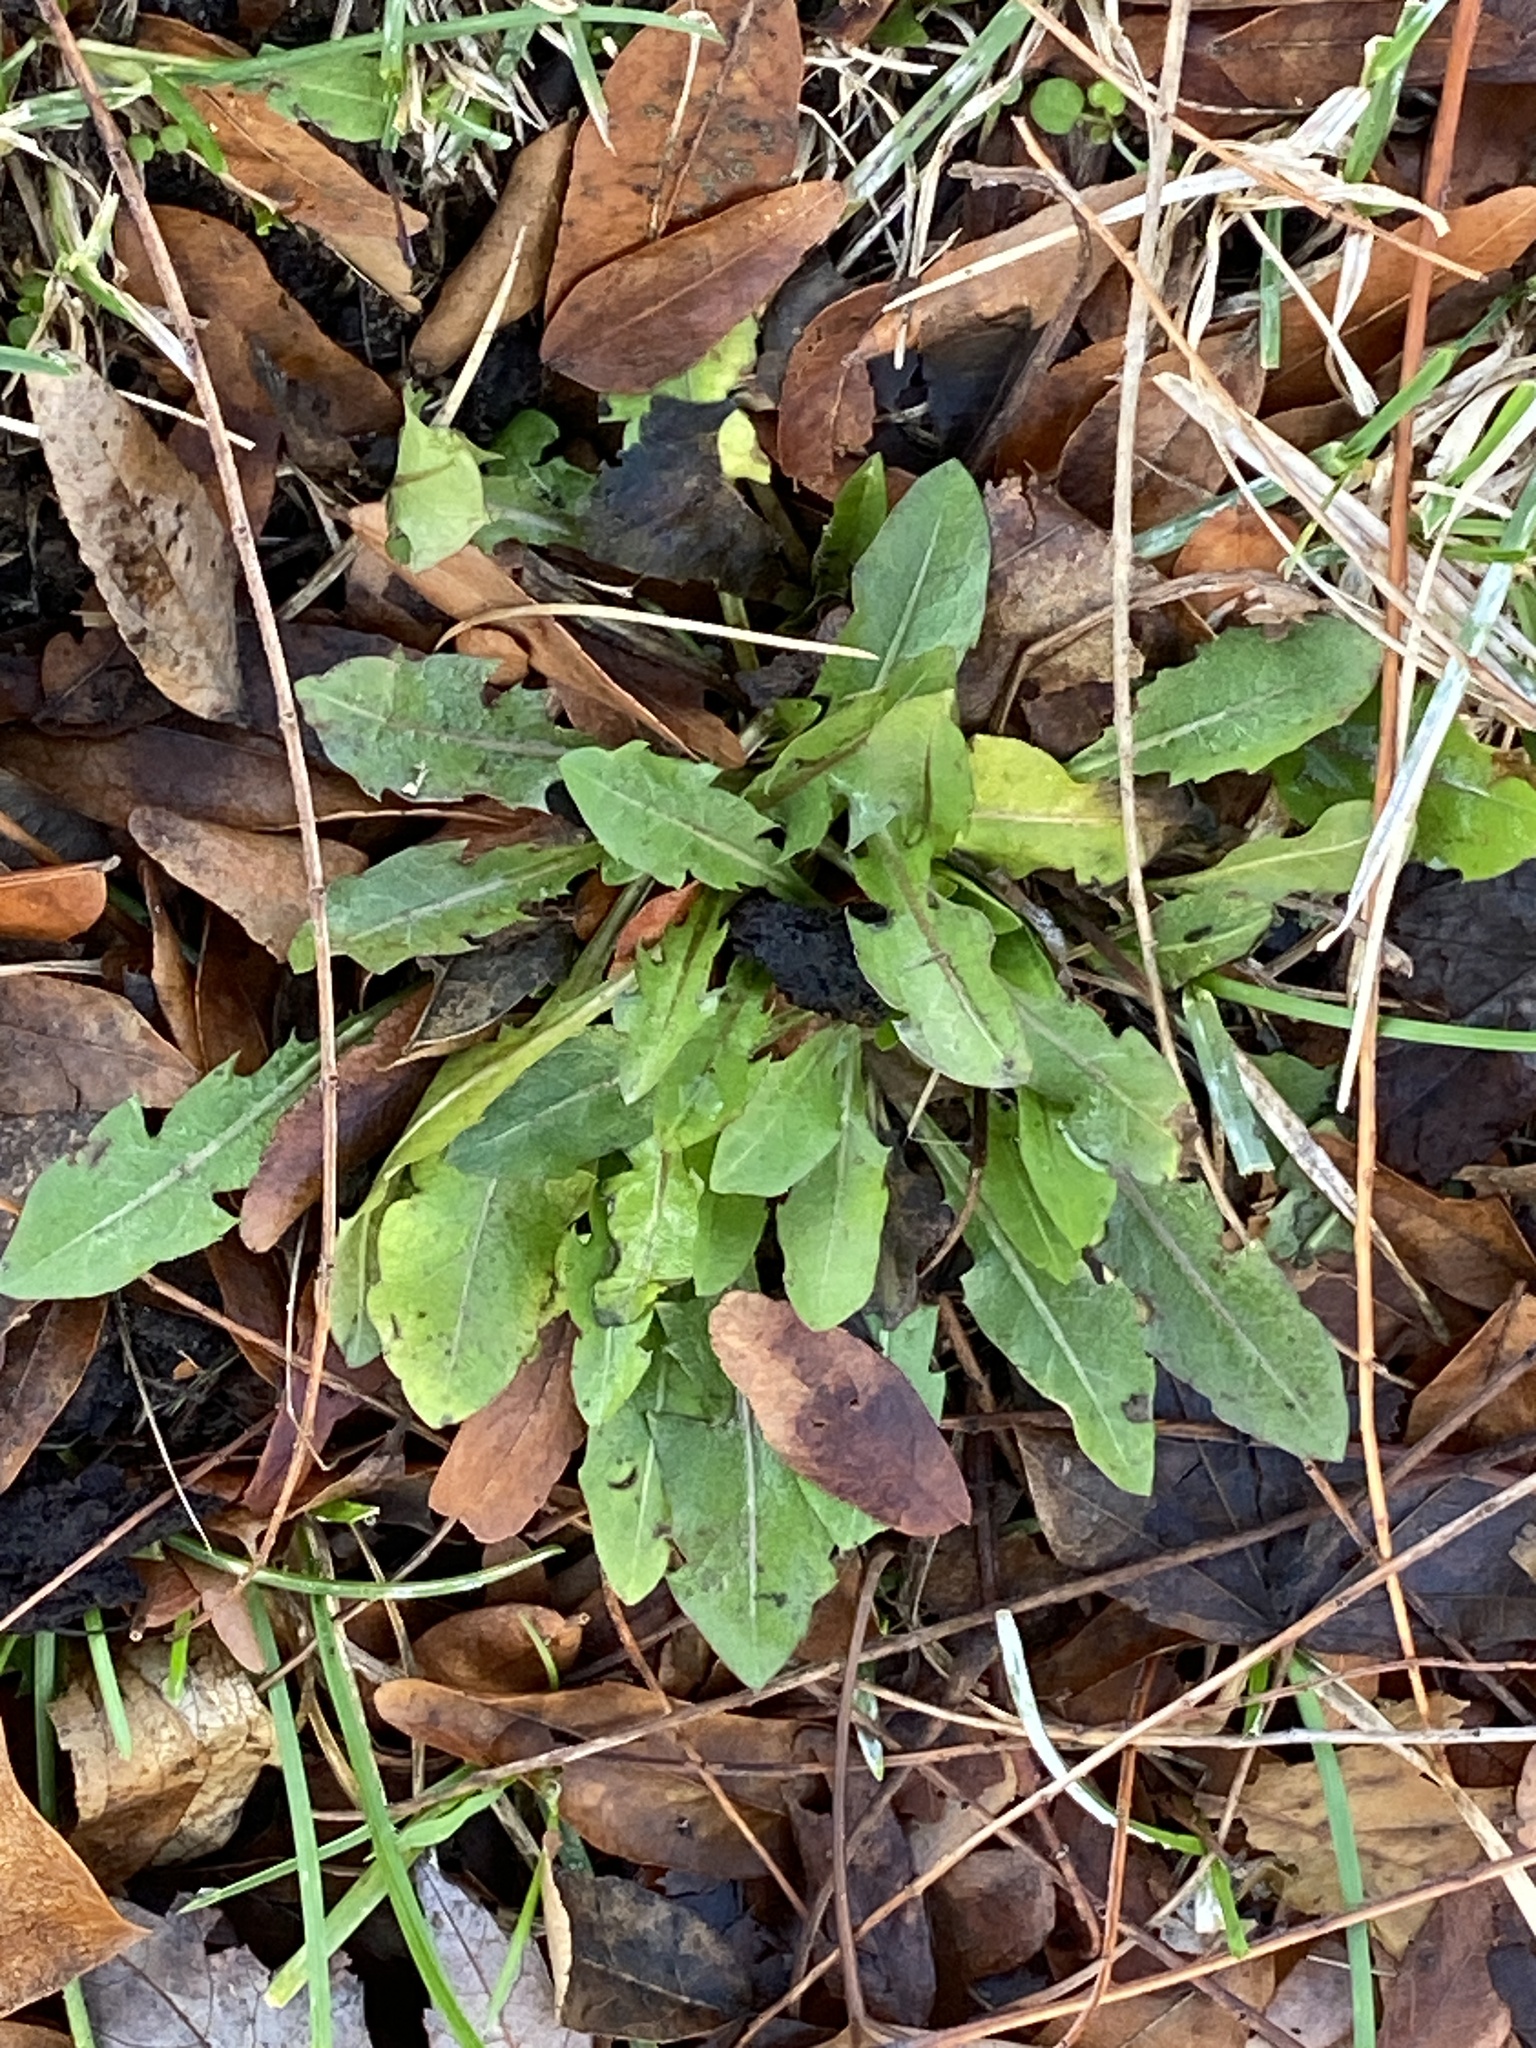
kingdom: Plantae
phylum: Tracheophyta
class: Magnoliopsida
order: Asterales
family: Asteraceae
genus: Taraxacum
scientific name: Taraxacum
